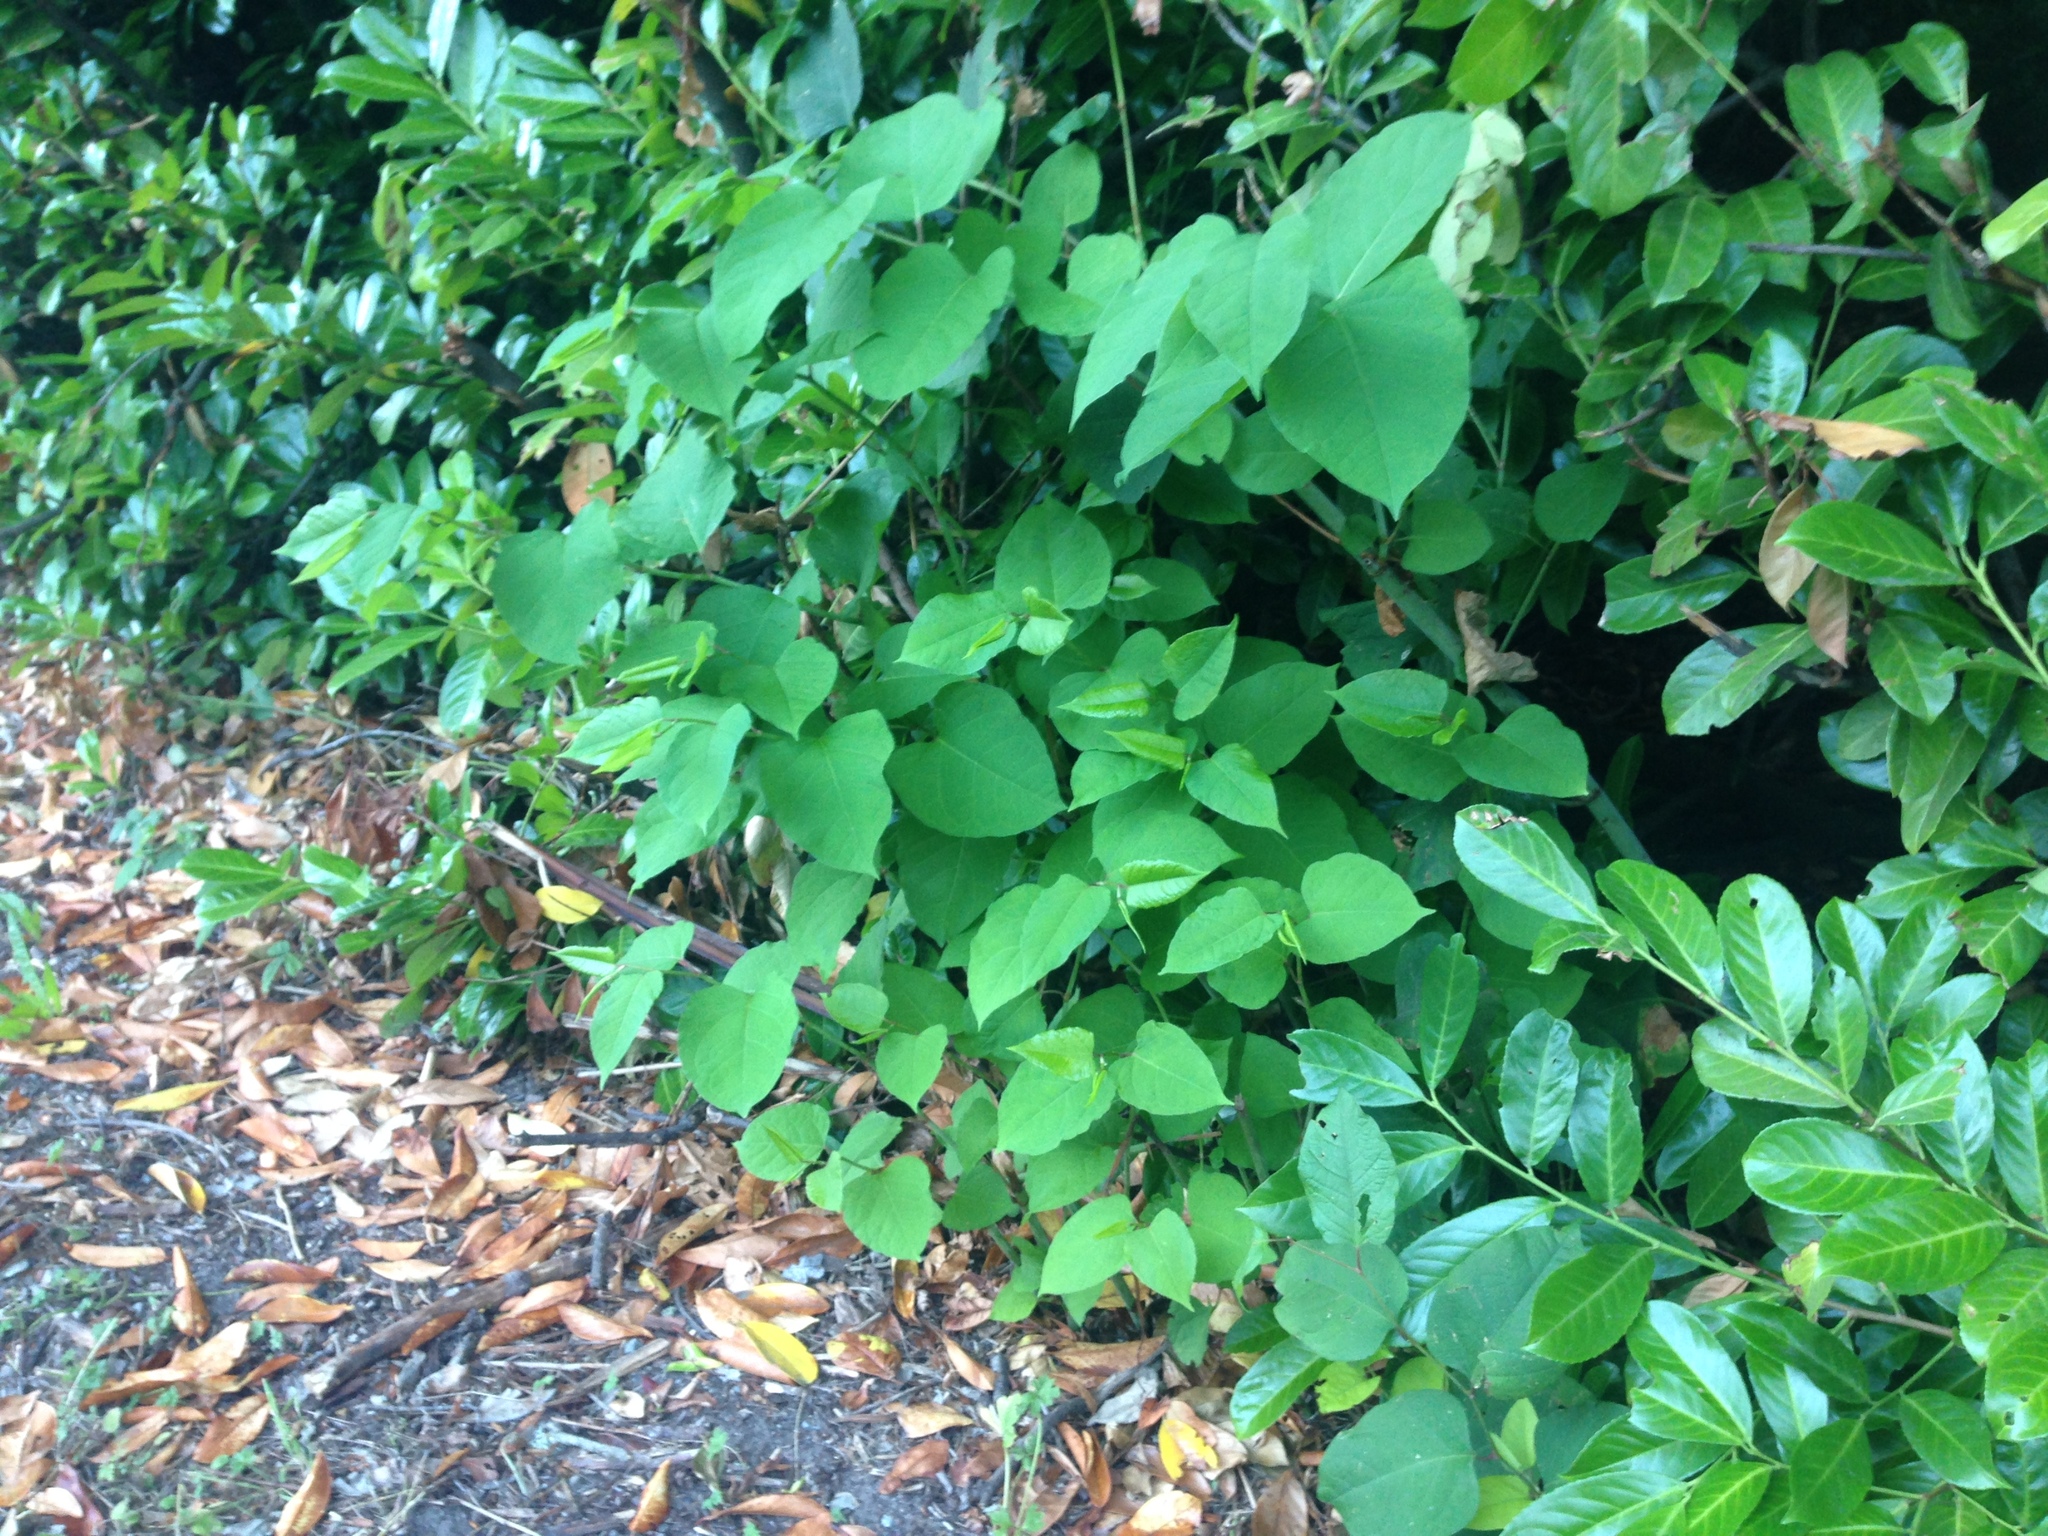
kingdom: Plantae
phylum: Tracheophyta
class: Magnoliopsida
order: Caryophyllales
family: Polygonaceae
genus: Reynoutria
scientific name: Reynoutria japonica
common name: Japanese knotweed
